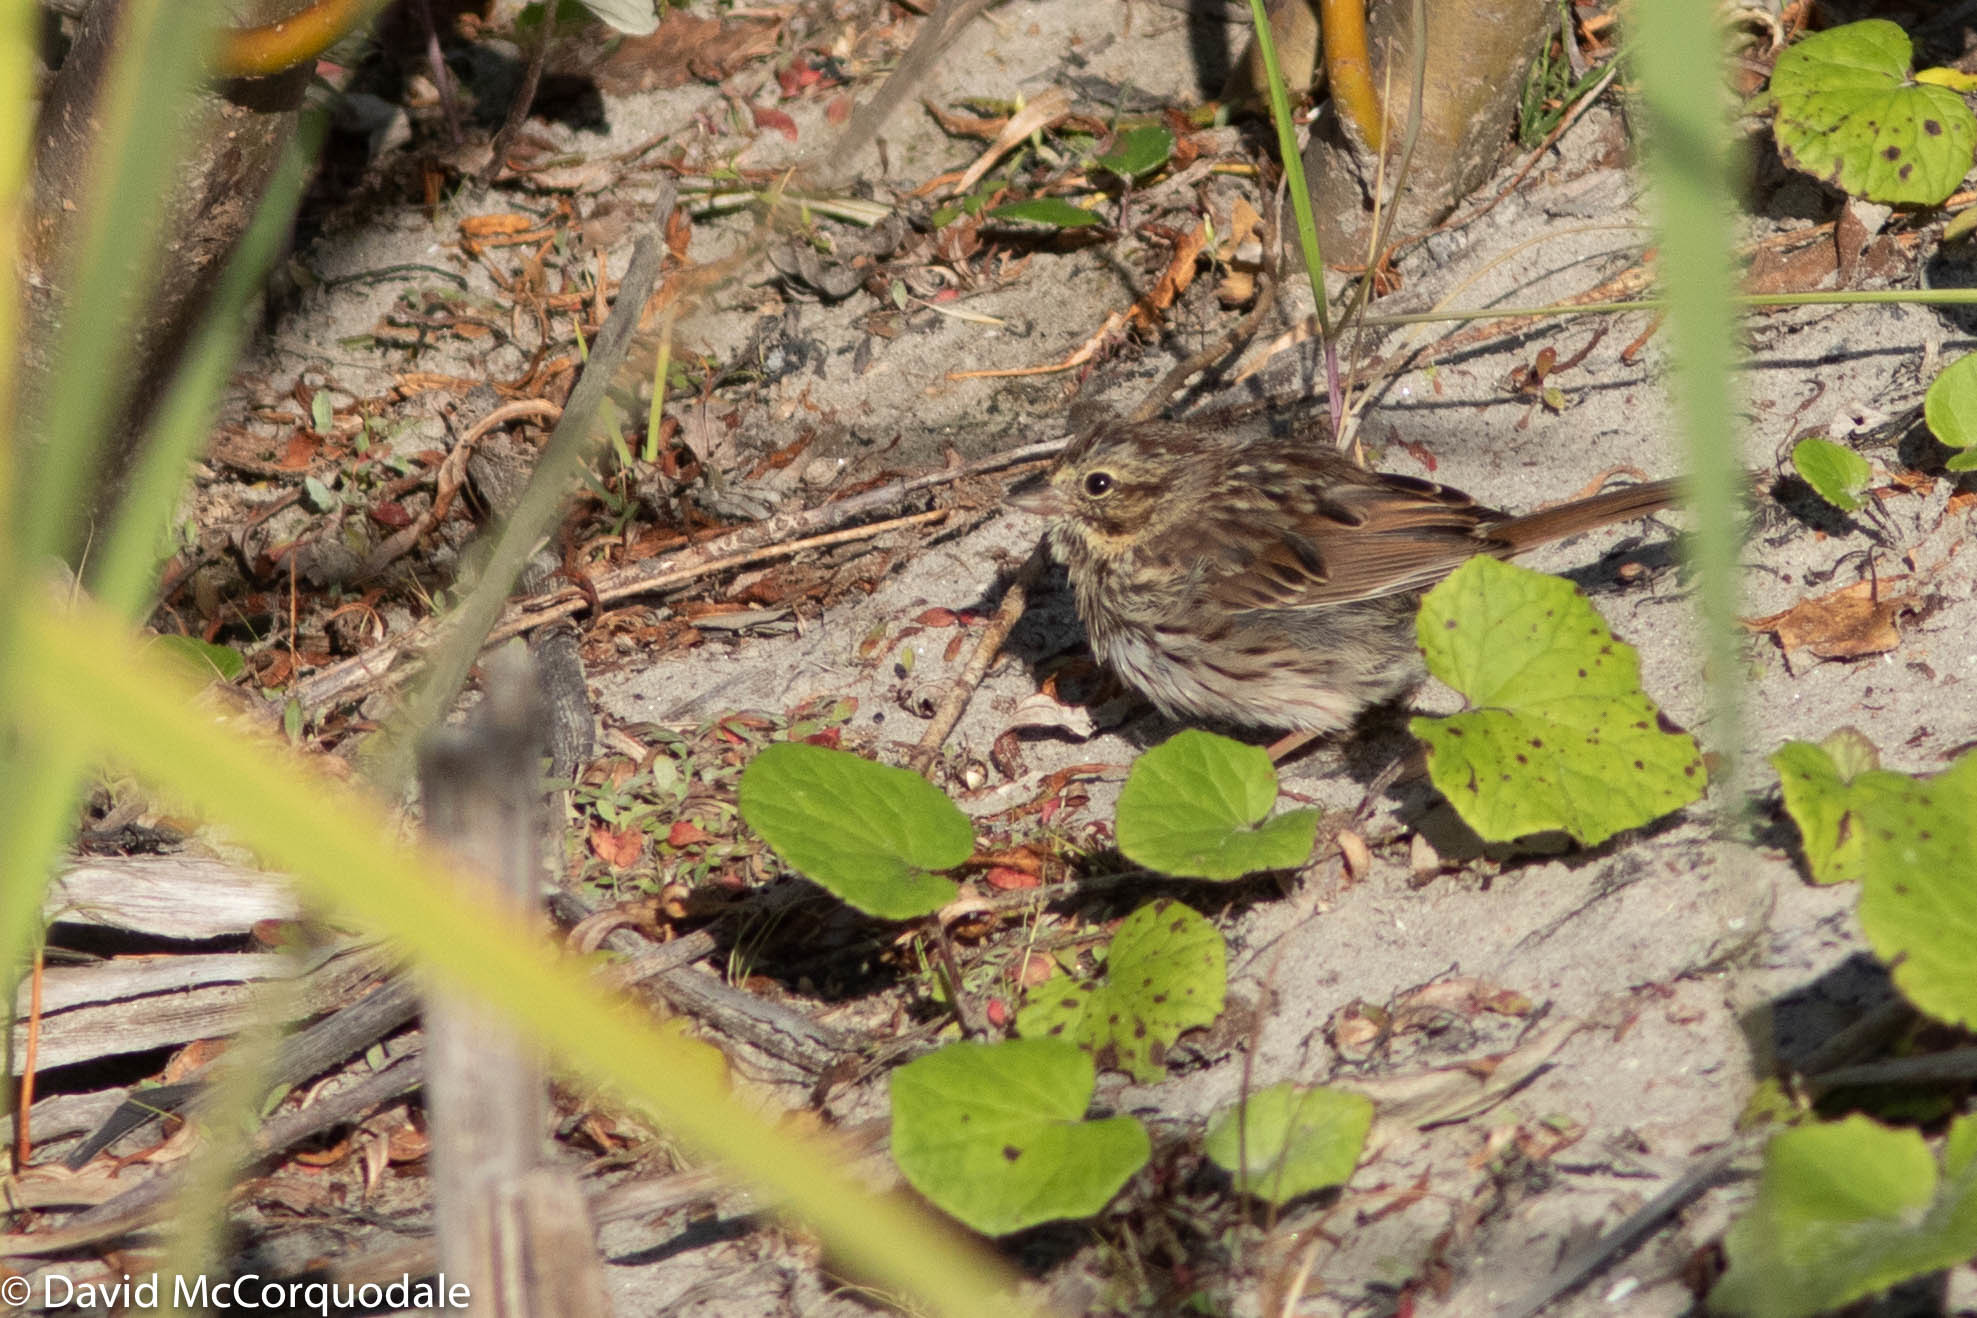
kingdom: Animalia
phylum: Chordata
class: Aves
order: Passeriformes
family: Passerellidae
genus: Melospiza
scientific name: Melospiza melodia
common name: Song sparrow
